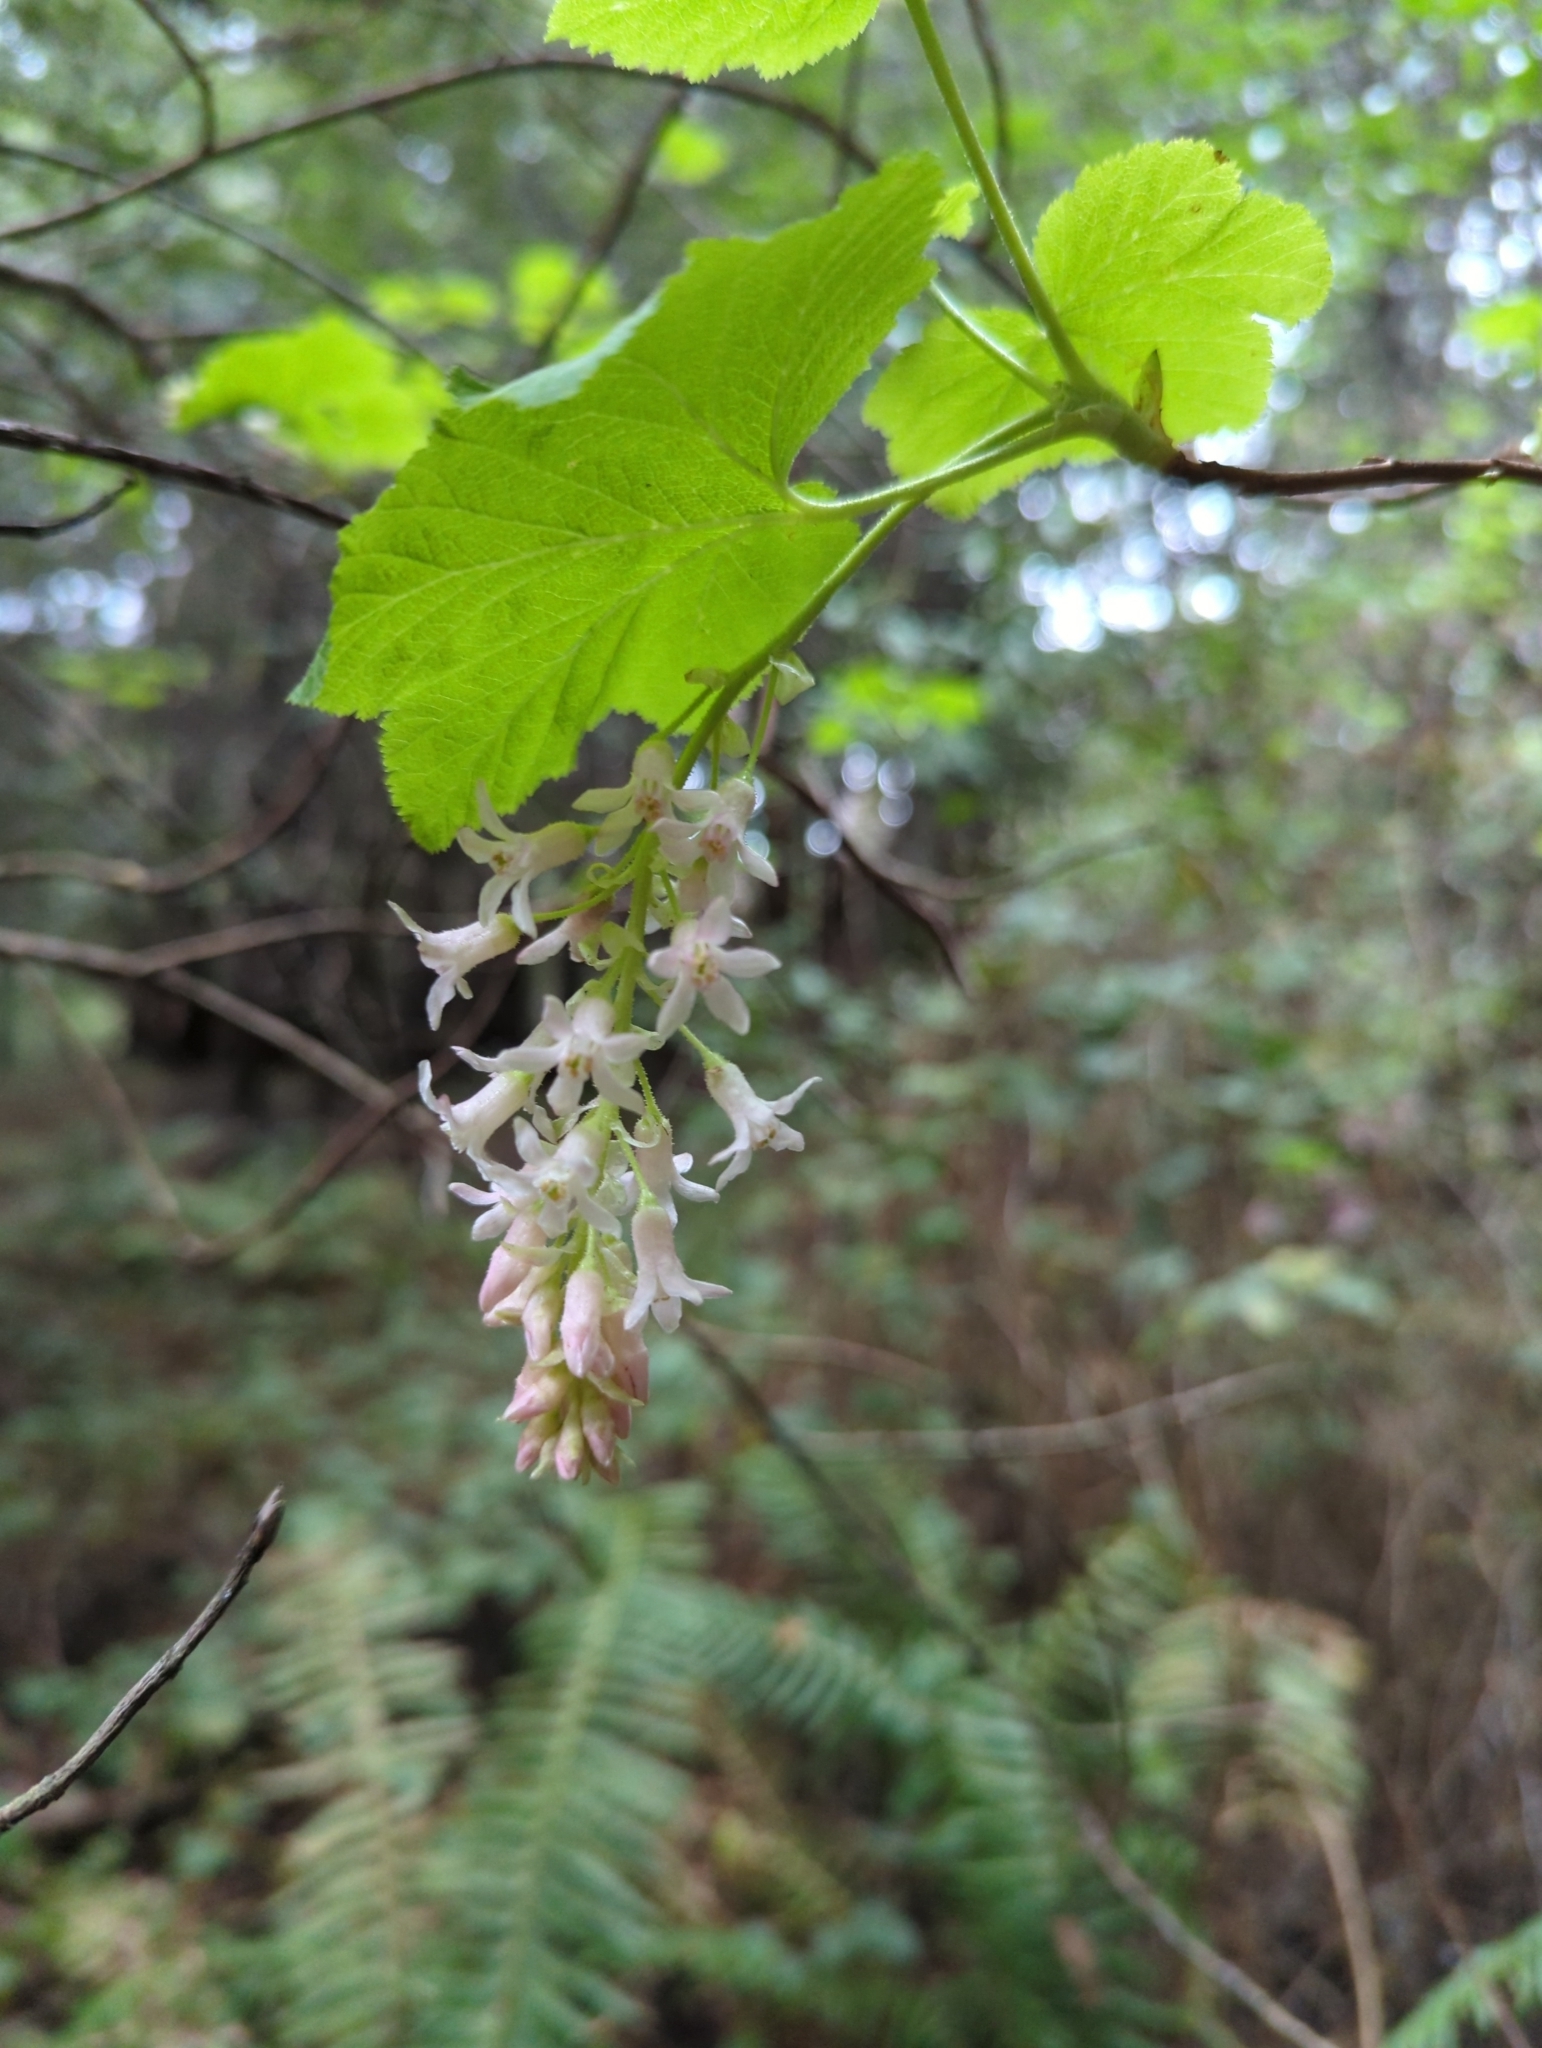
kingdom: Plantae
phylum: Tracheophyta
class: Magnoliopsida
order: Saxifragales
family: Grossulariaceae
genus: Ribes
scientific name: Ribes sanguineum
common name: Flowering currant
